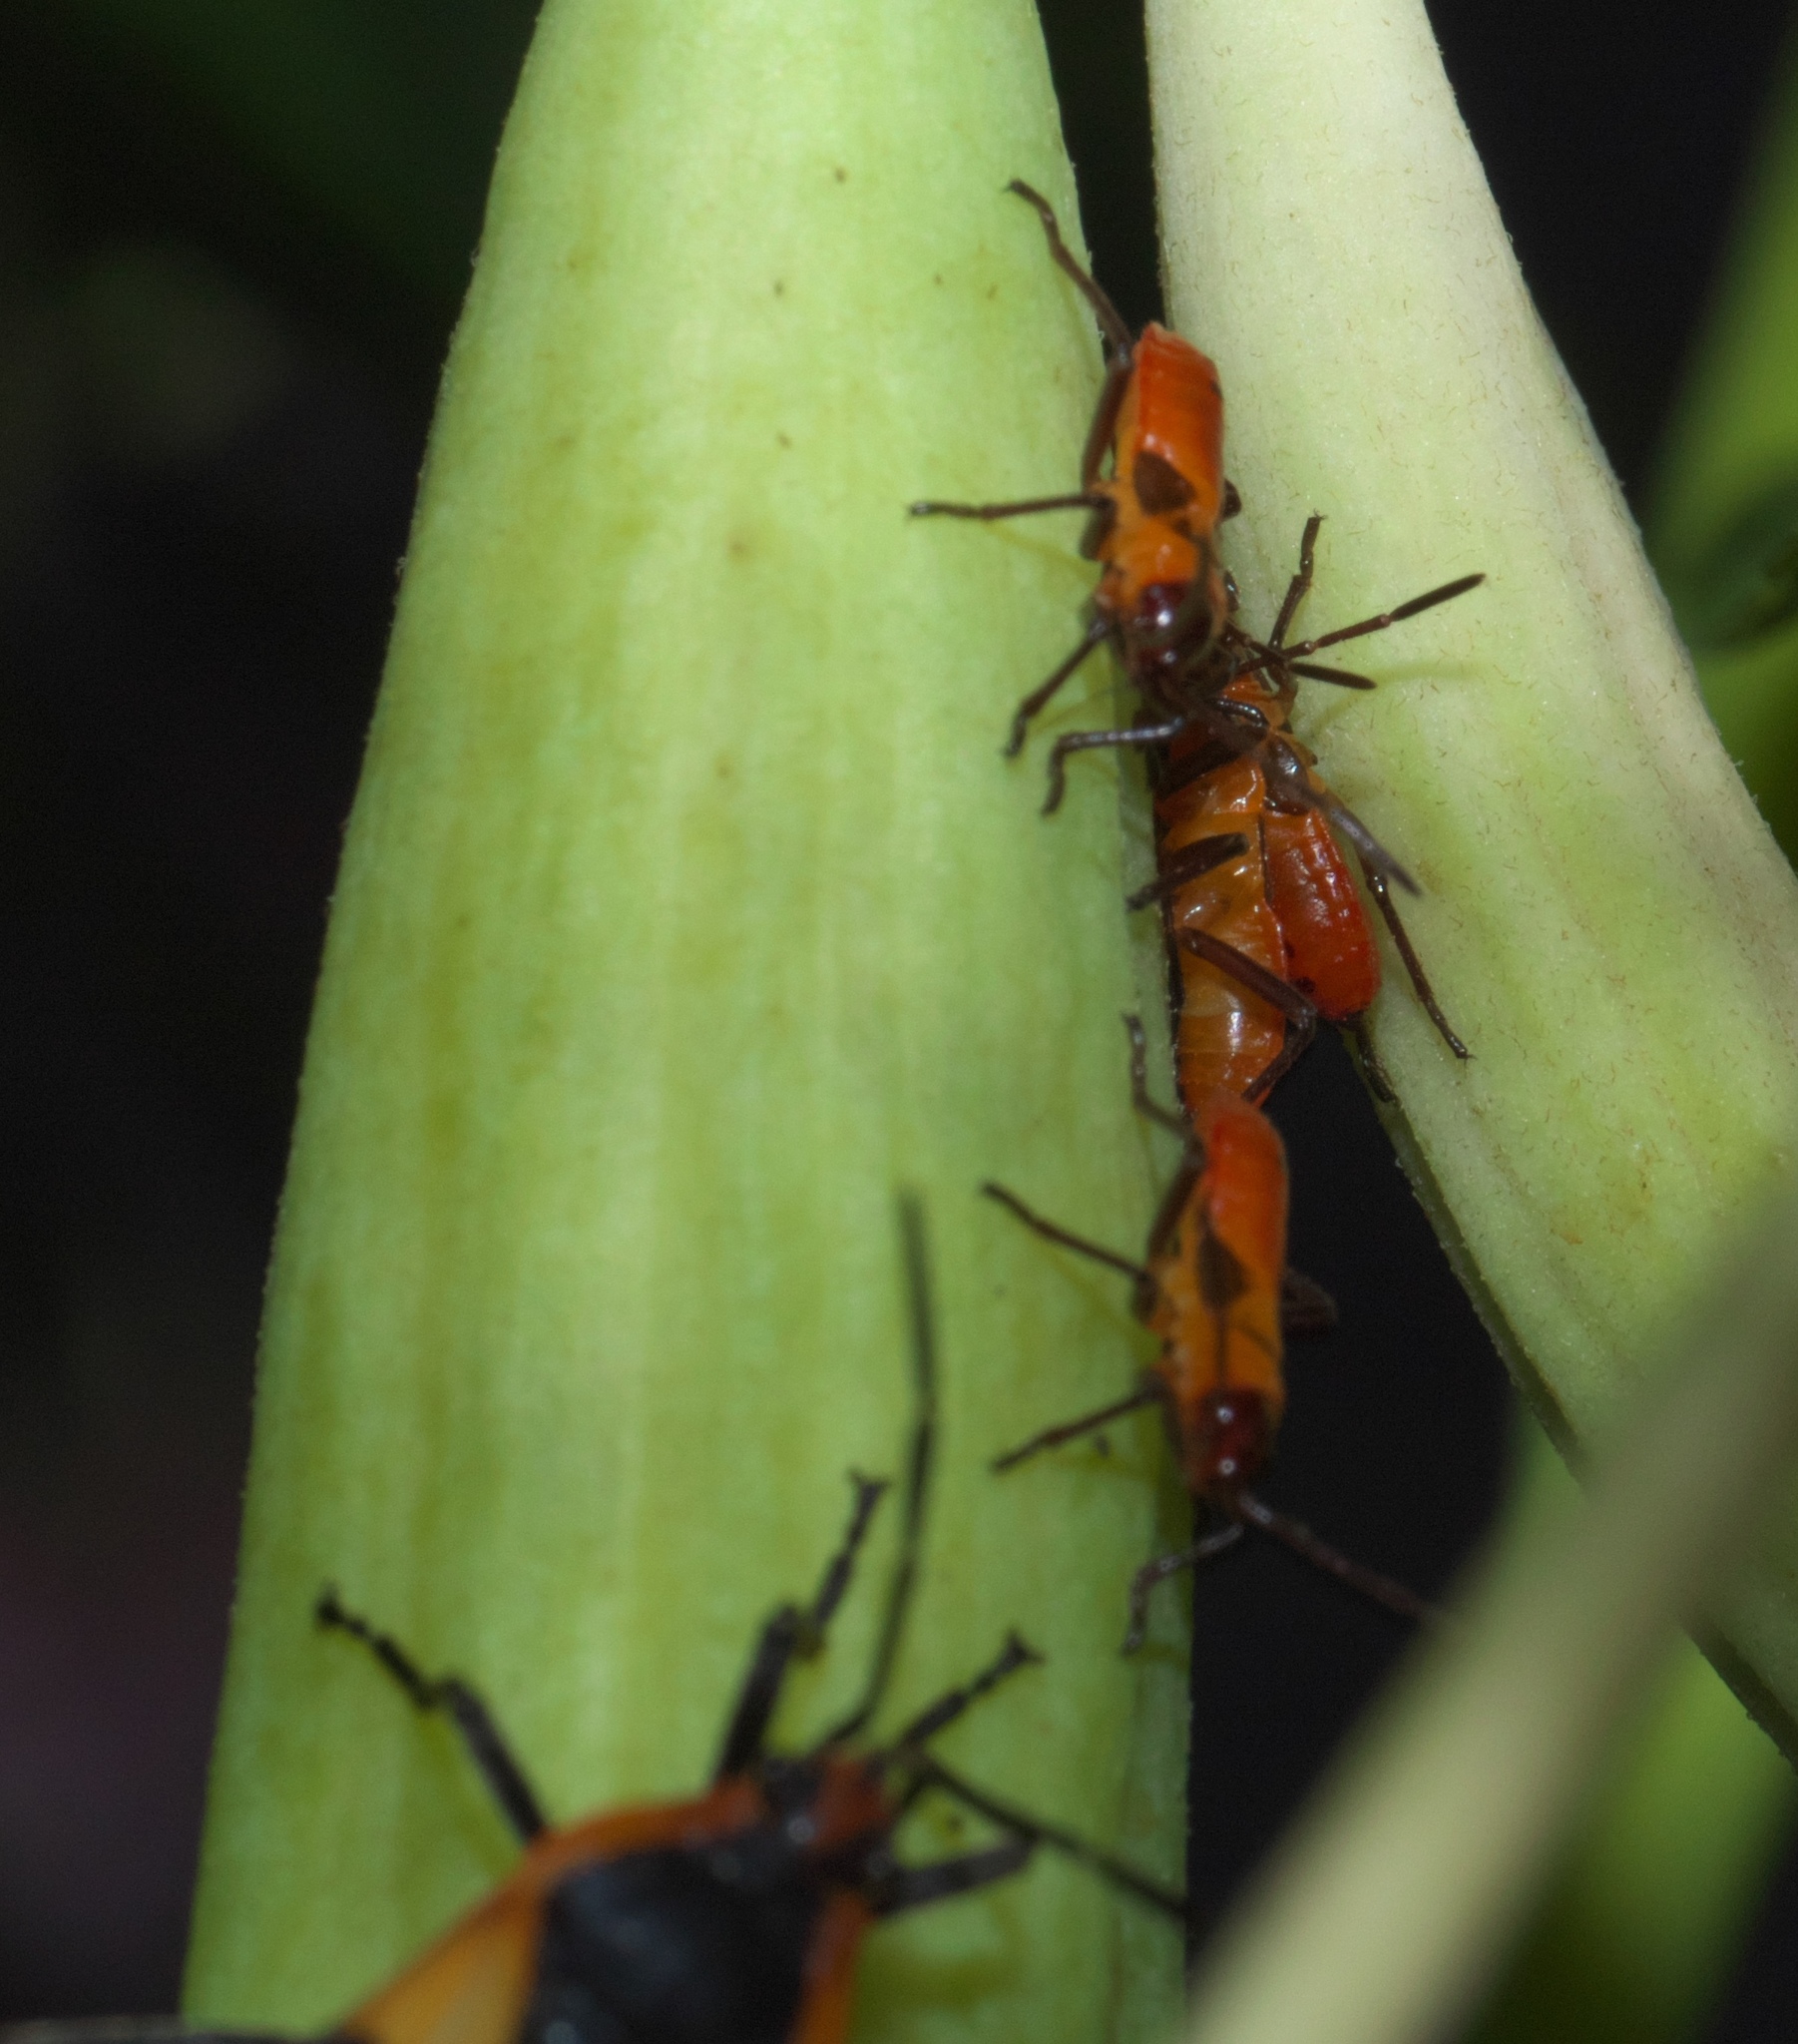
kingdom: Animalia
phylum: Arthropoda
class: Insecta
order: Hemiptera
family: Lygaeidae
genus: Oncopeltus
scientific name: Oncopeltus fasciatus
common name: Large milkweed bug
